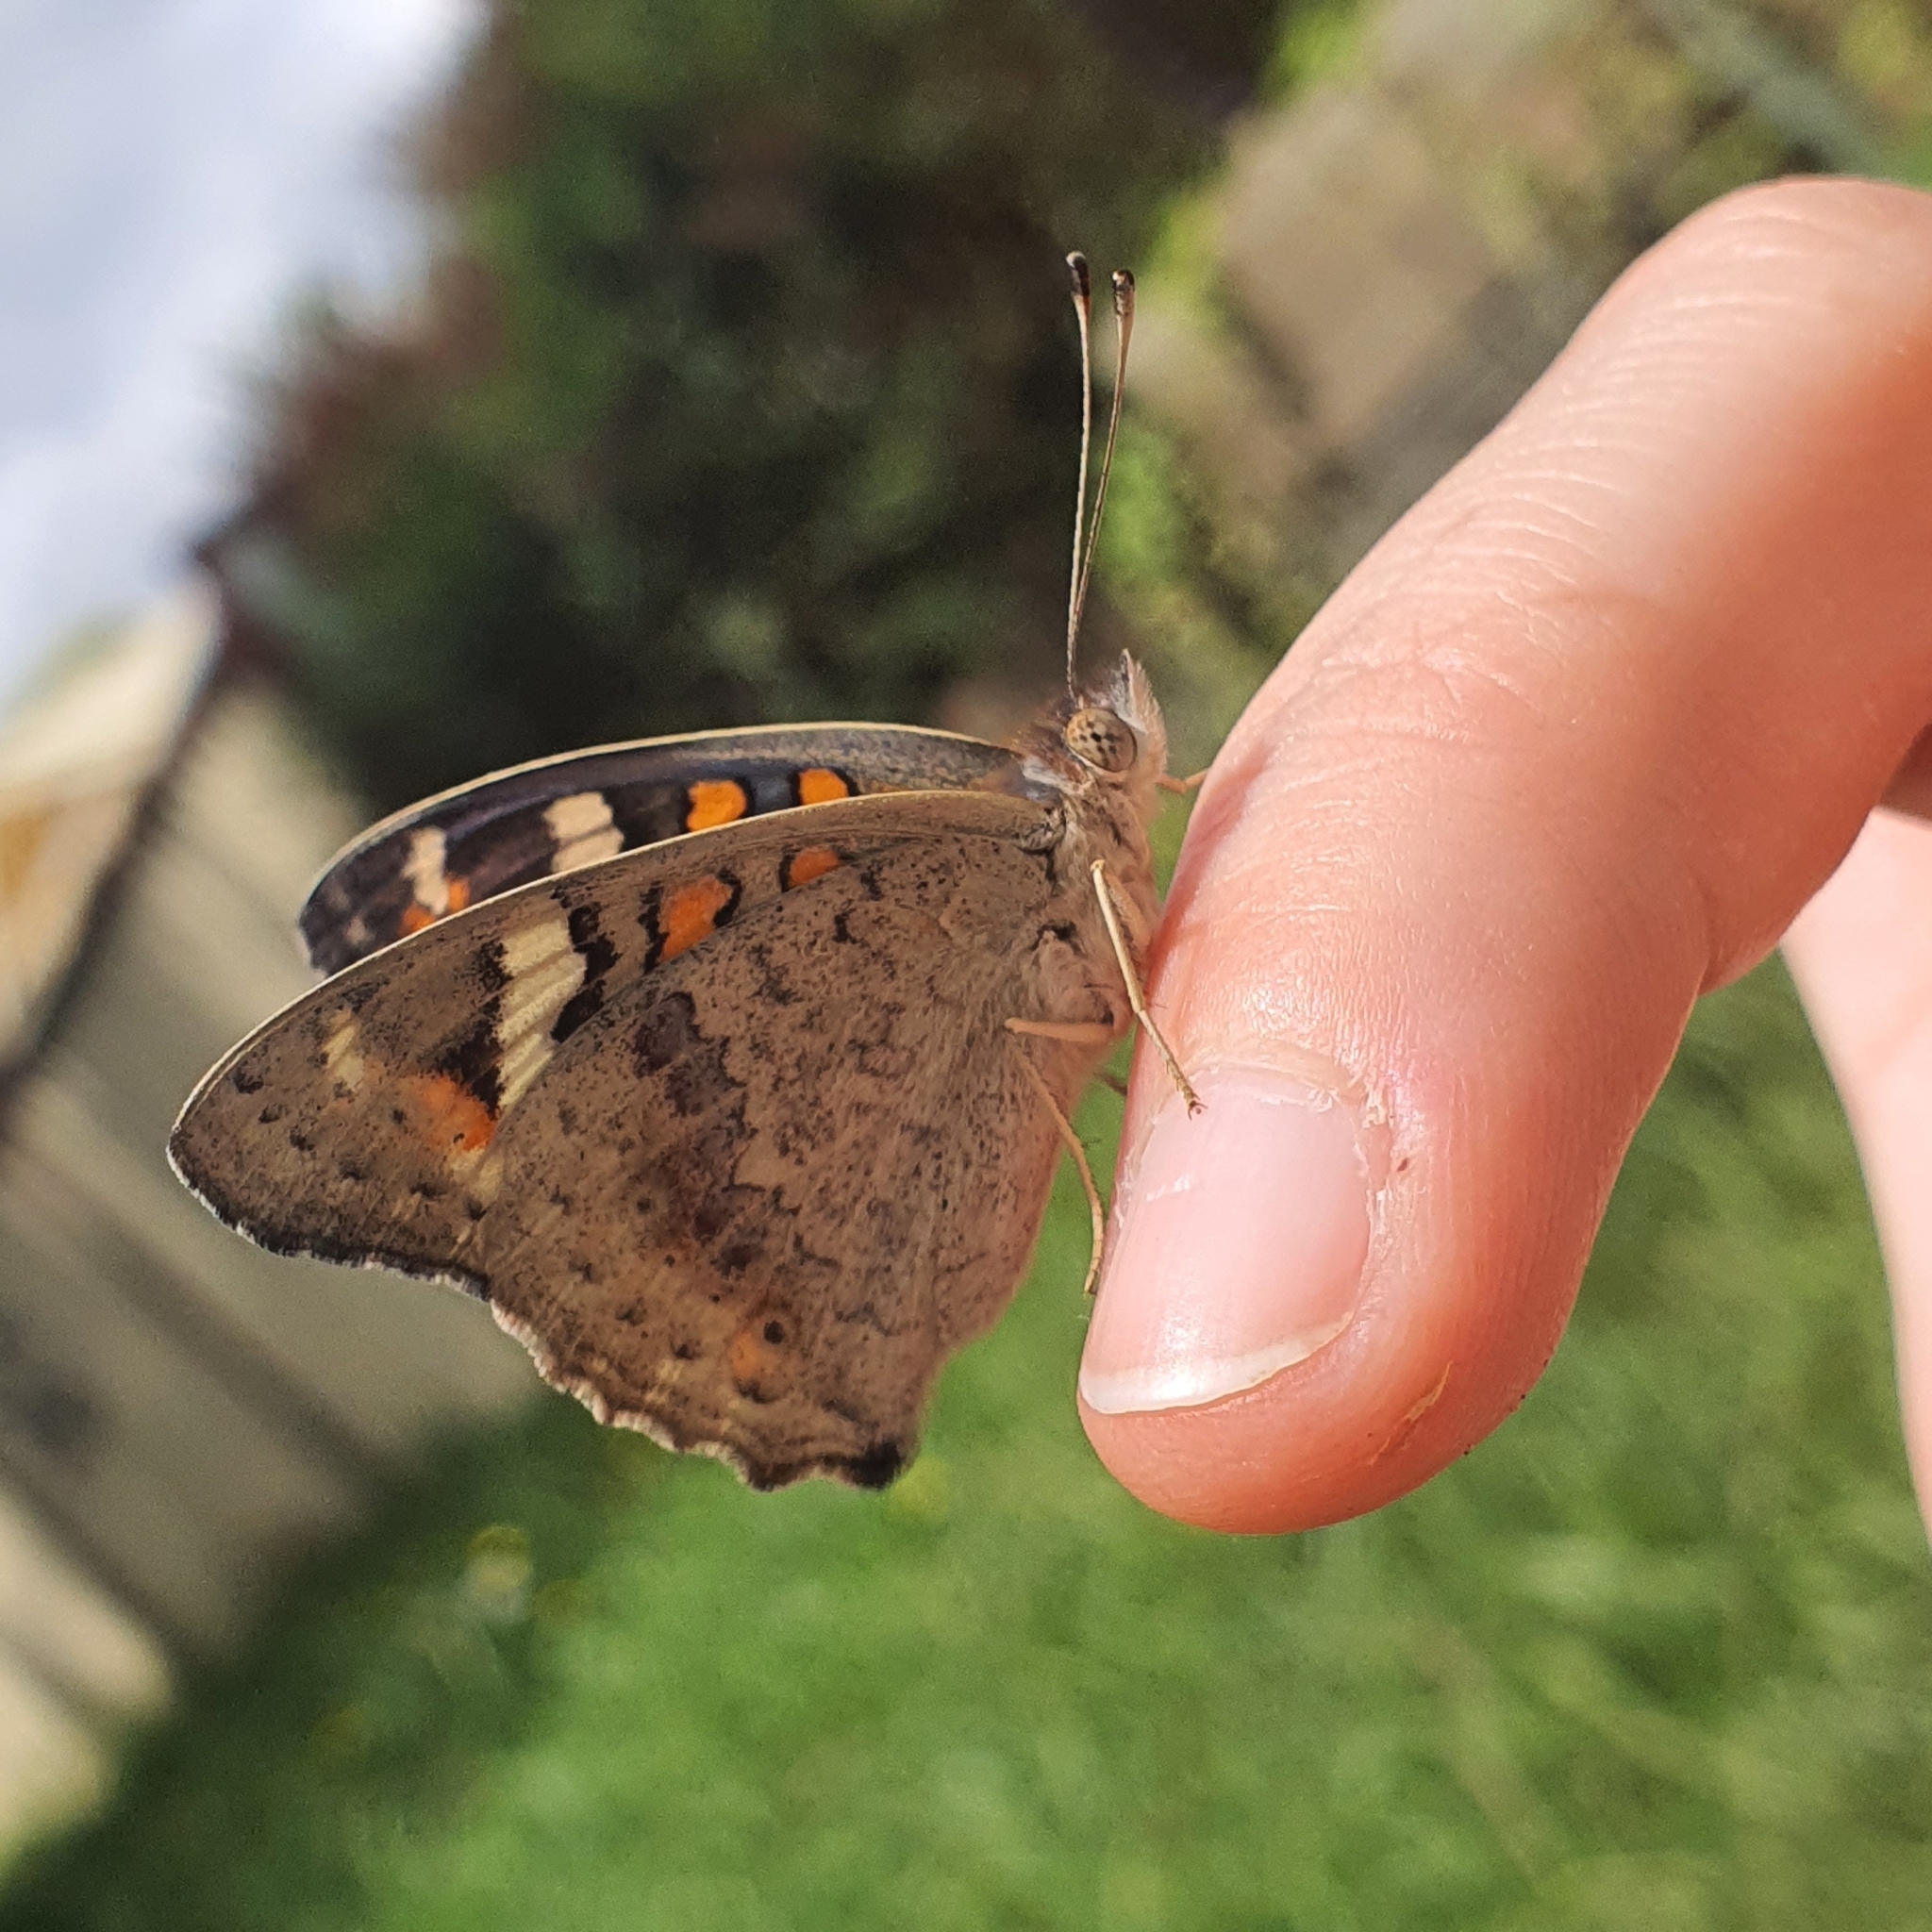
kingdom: Animalia
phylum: Arthropoda
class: Insecta
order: Lepidoptera
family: Nymphalidae
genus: Junonia
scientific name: Junonia villida
